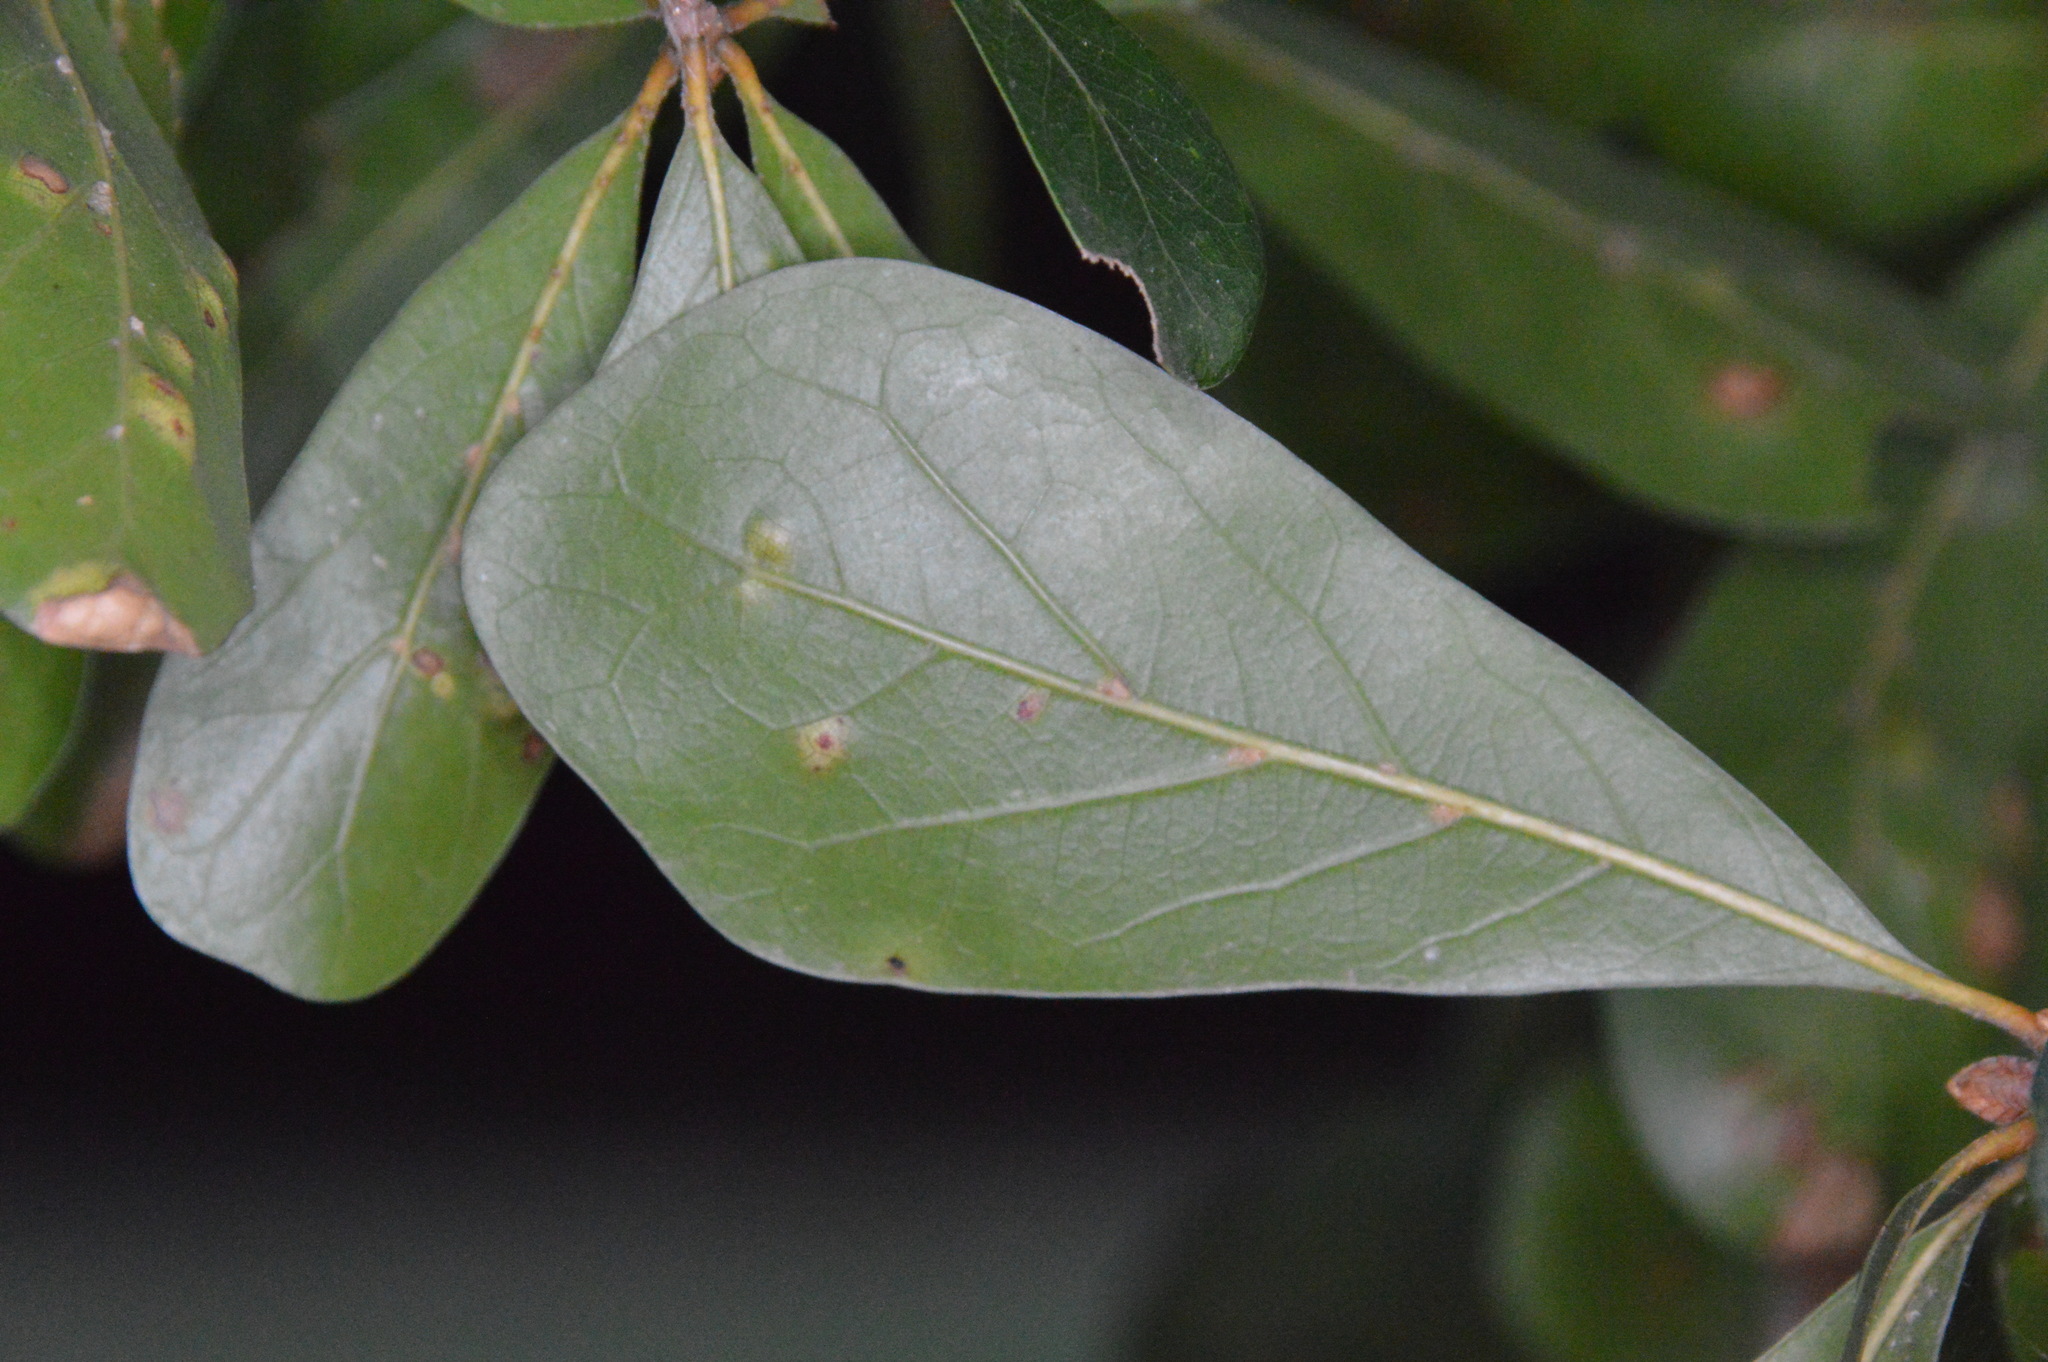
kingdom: Animalia
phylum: Arthropoda
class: Insecta
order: Diptera
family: Cecidomyiidae
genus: Polystepha
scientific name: Polystepha pilulae
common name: Oak leaf gall midge
